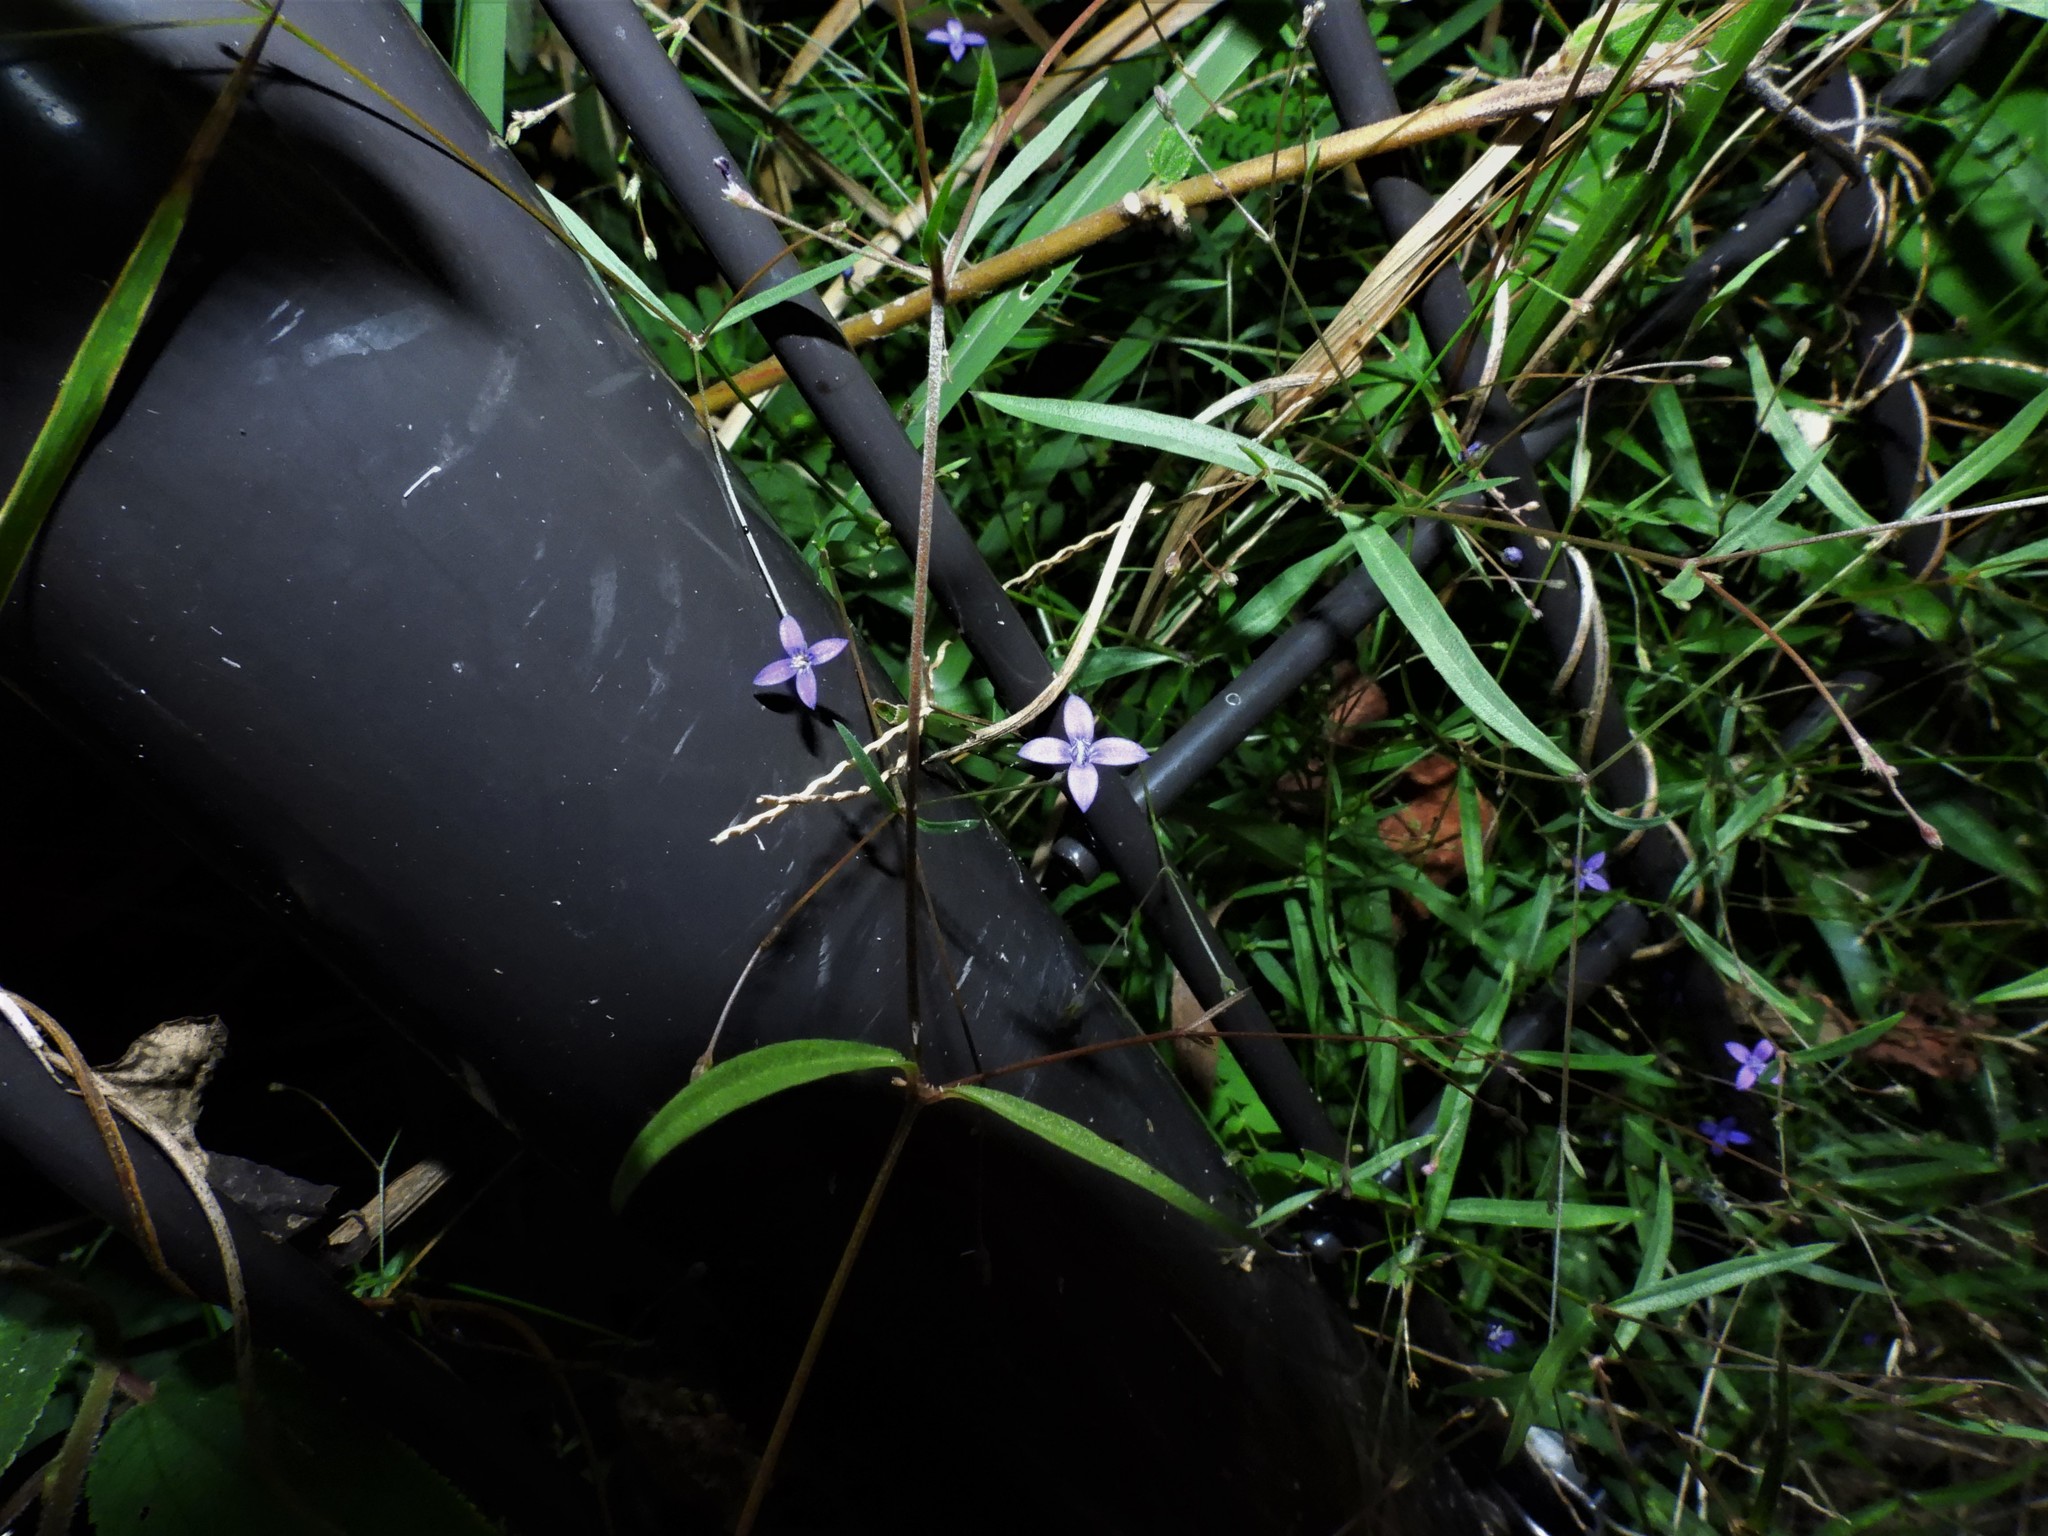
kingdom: Plantae
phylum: Tracheophyta
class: Magnoliopsida
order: Gentianales
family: Rubiaceae
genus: Oldenlandia
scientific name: Oldenlandia affinis
